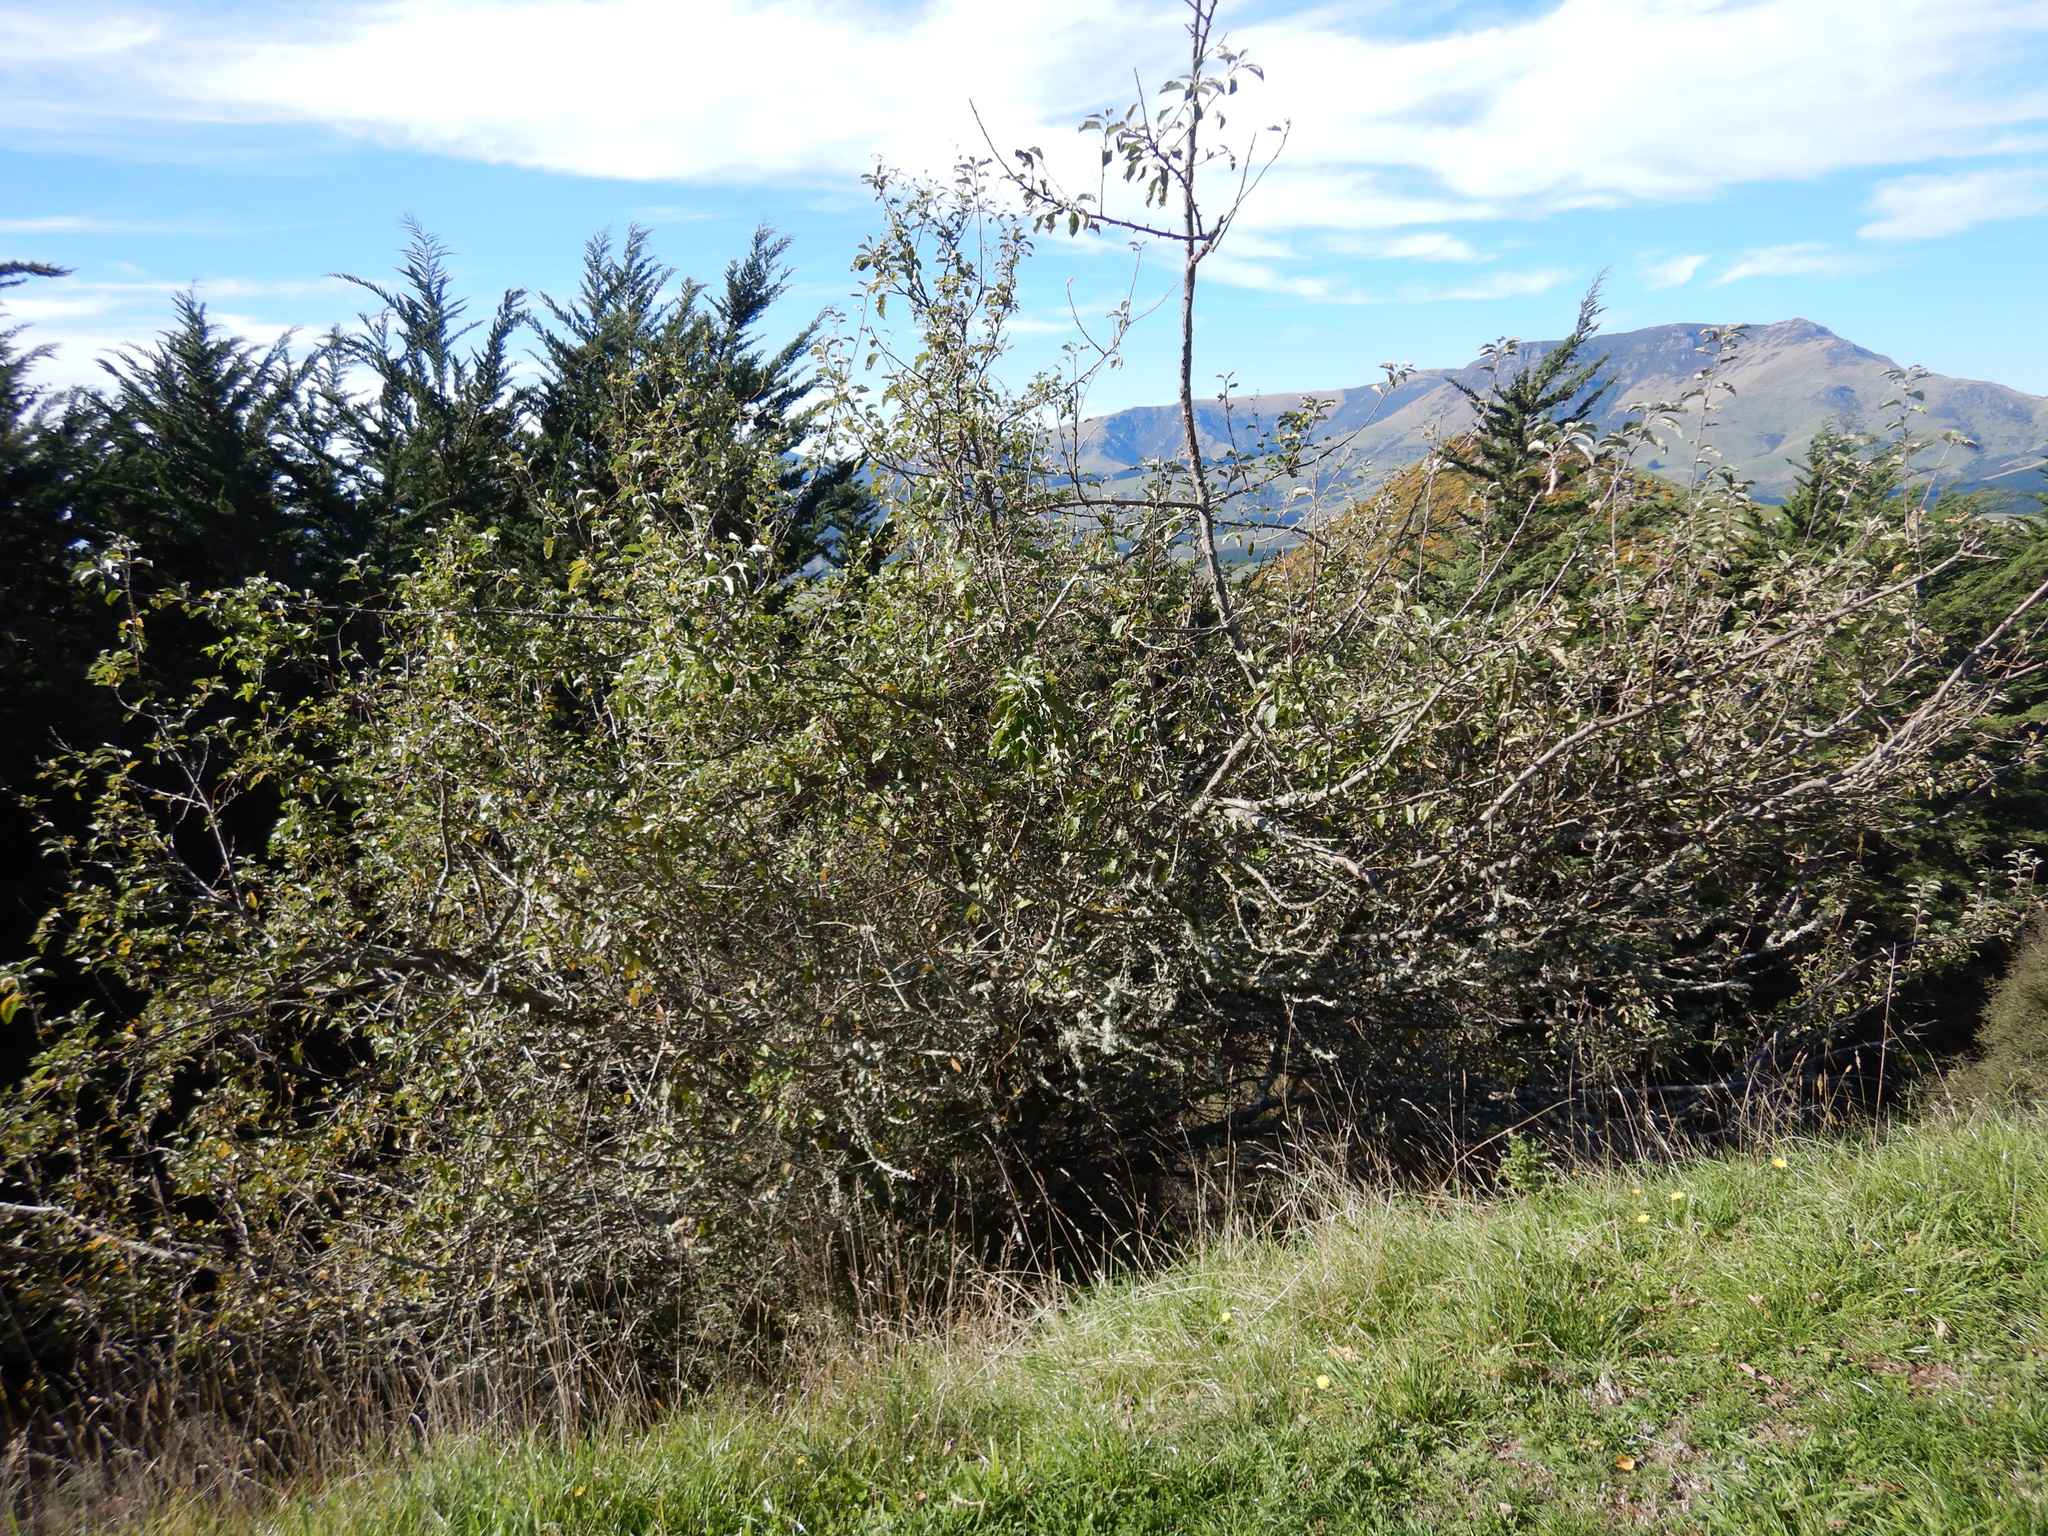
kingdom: Plantae
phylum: Tracheophyta
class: Magnoliopsida
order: Rosales
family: Rosaceae
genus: Malus
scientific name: Malus domestica
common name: Apple
